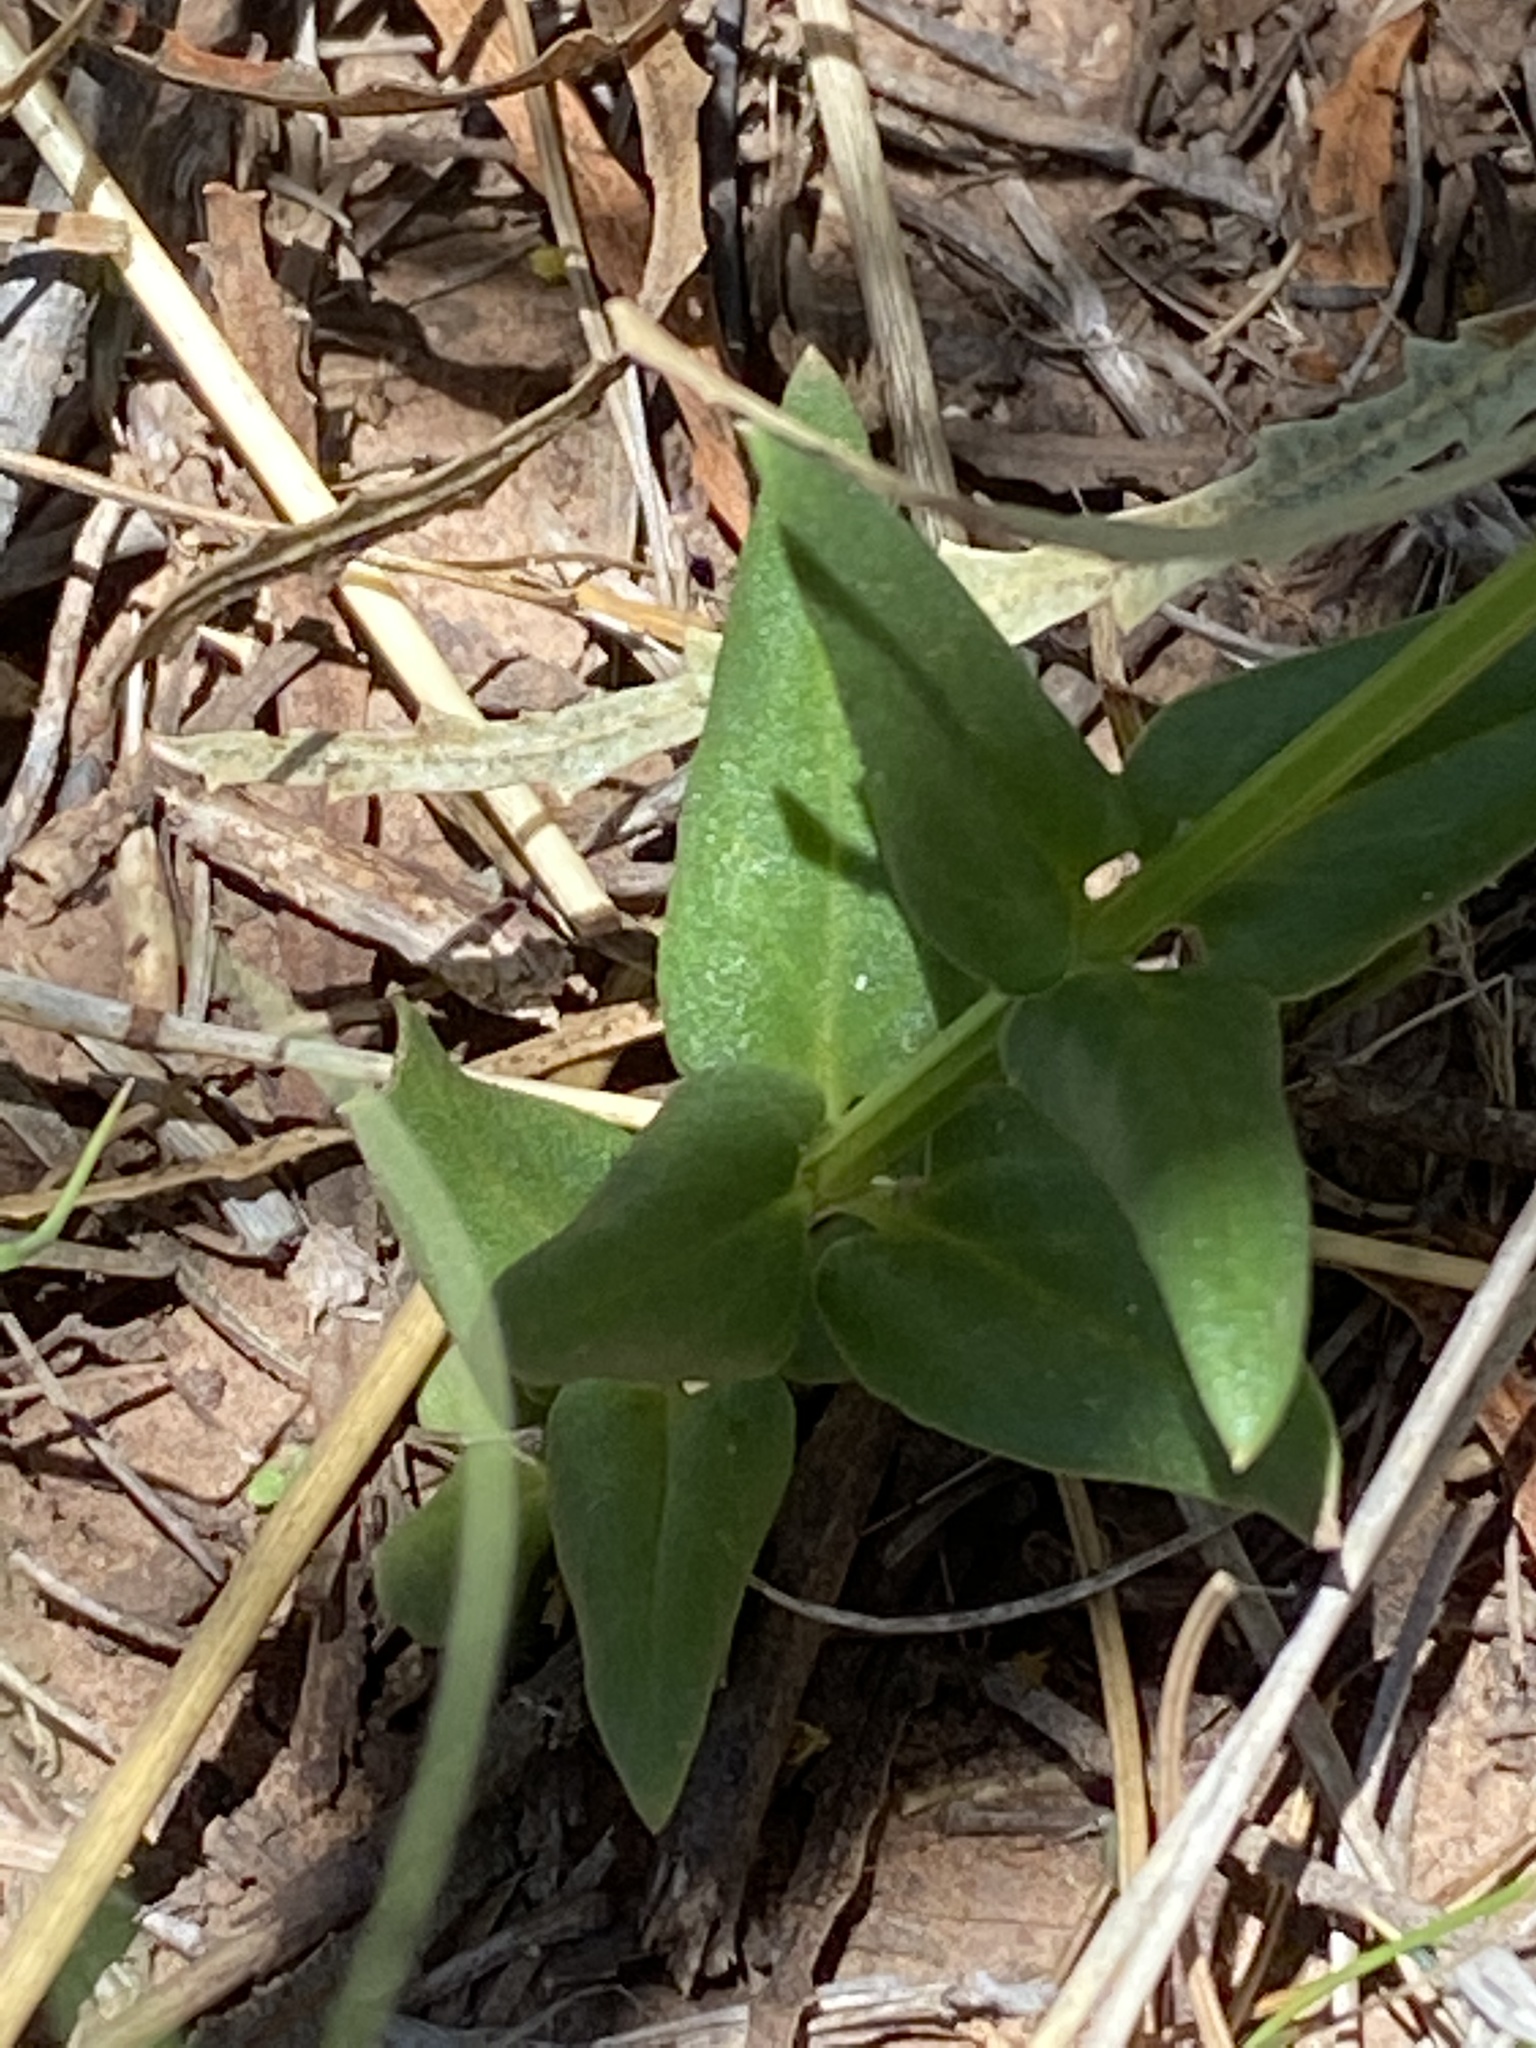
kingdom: Plantae
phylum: Tracheophyta
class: Magnoliopsida
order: Lamiales
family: Scrophulariaceae
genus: Diascia
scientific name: Diascia capsularis
